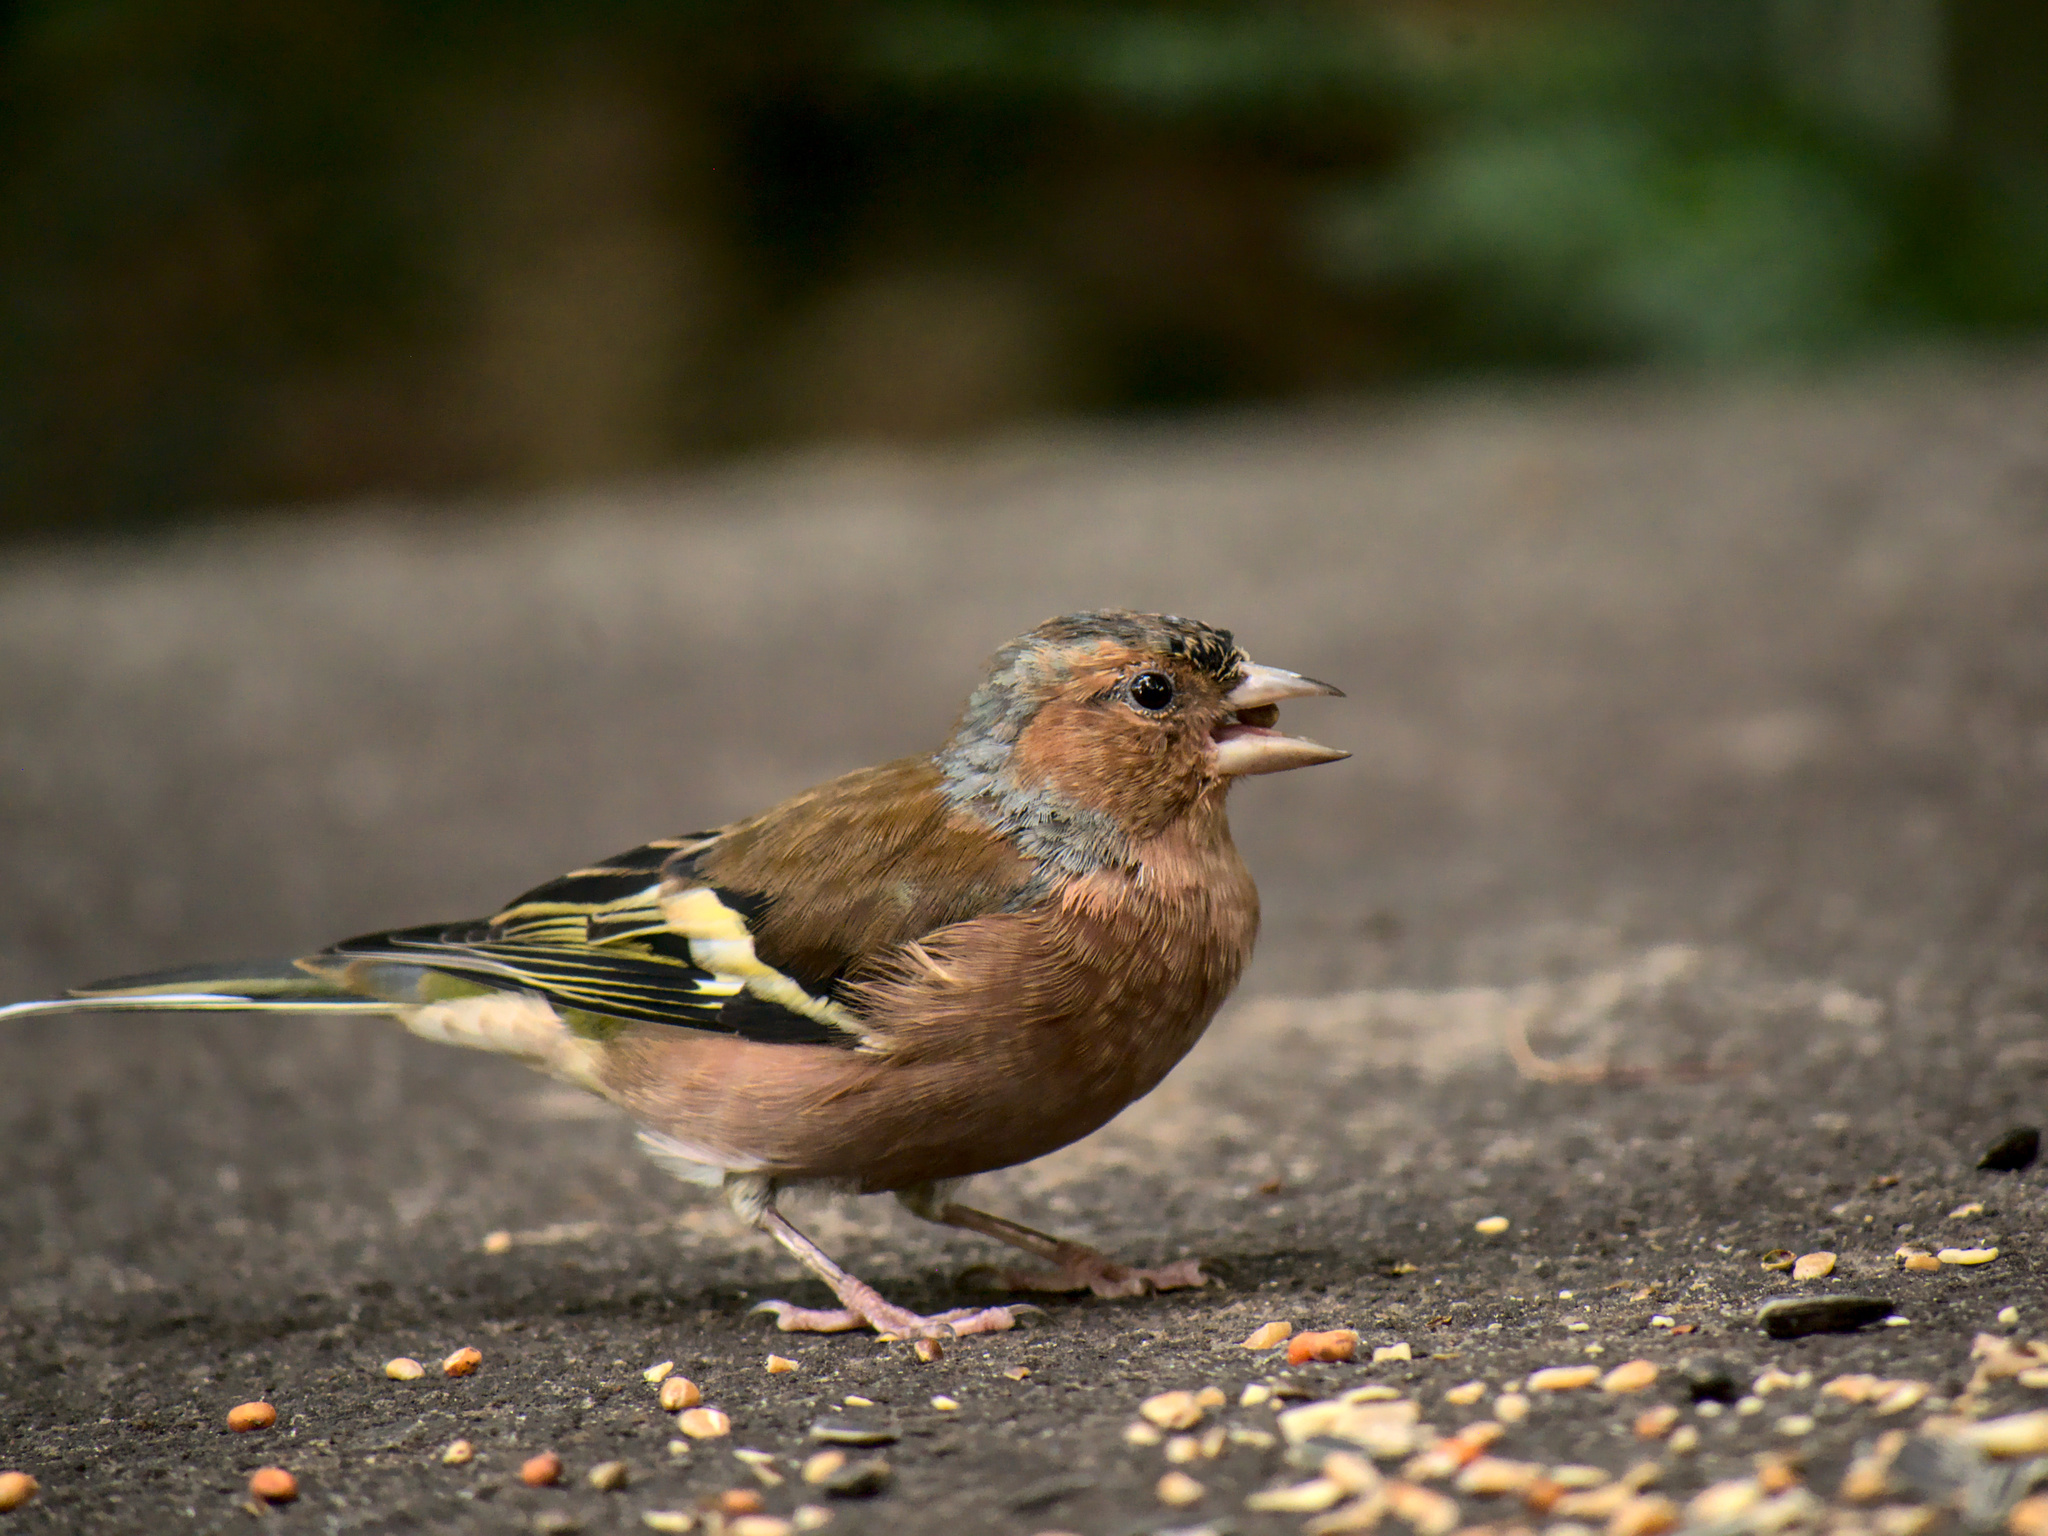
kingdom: Animalia
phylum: Chordata
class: Aves
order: Passeriformes
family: Fringillidae
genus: Fringilla
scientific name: Fringilla coelebs
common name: Common chaffinch
